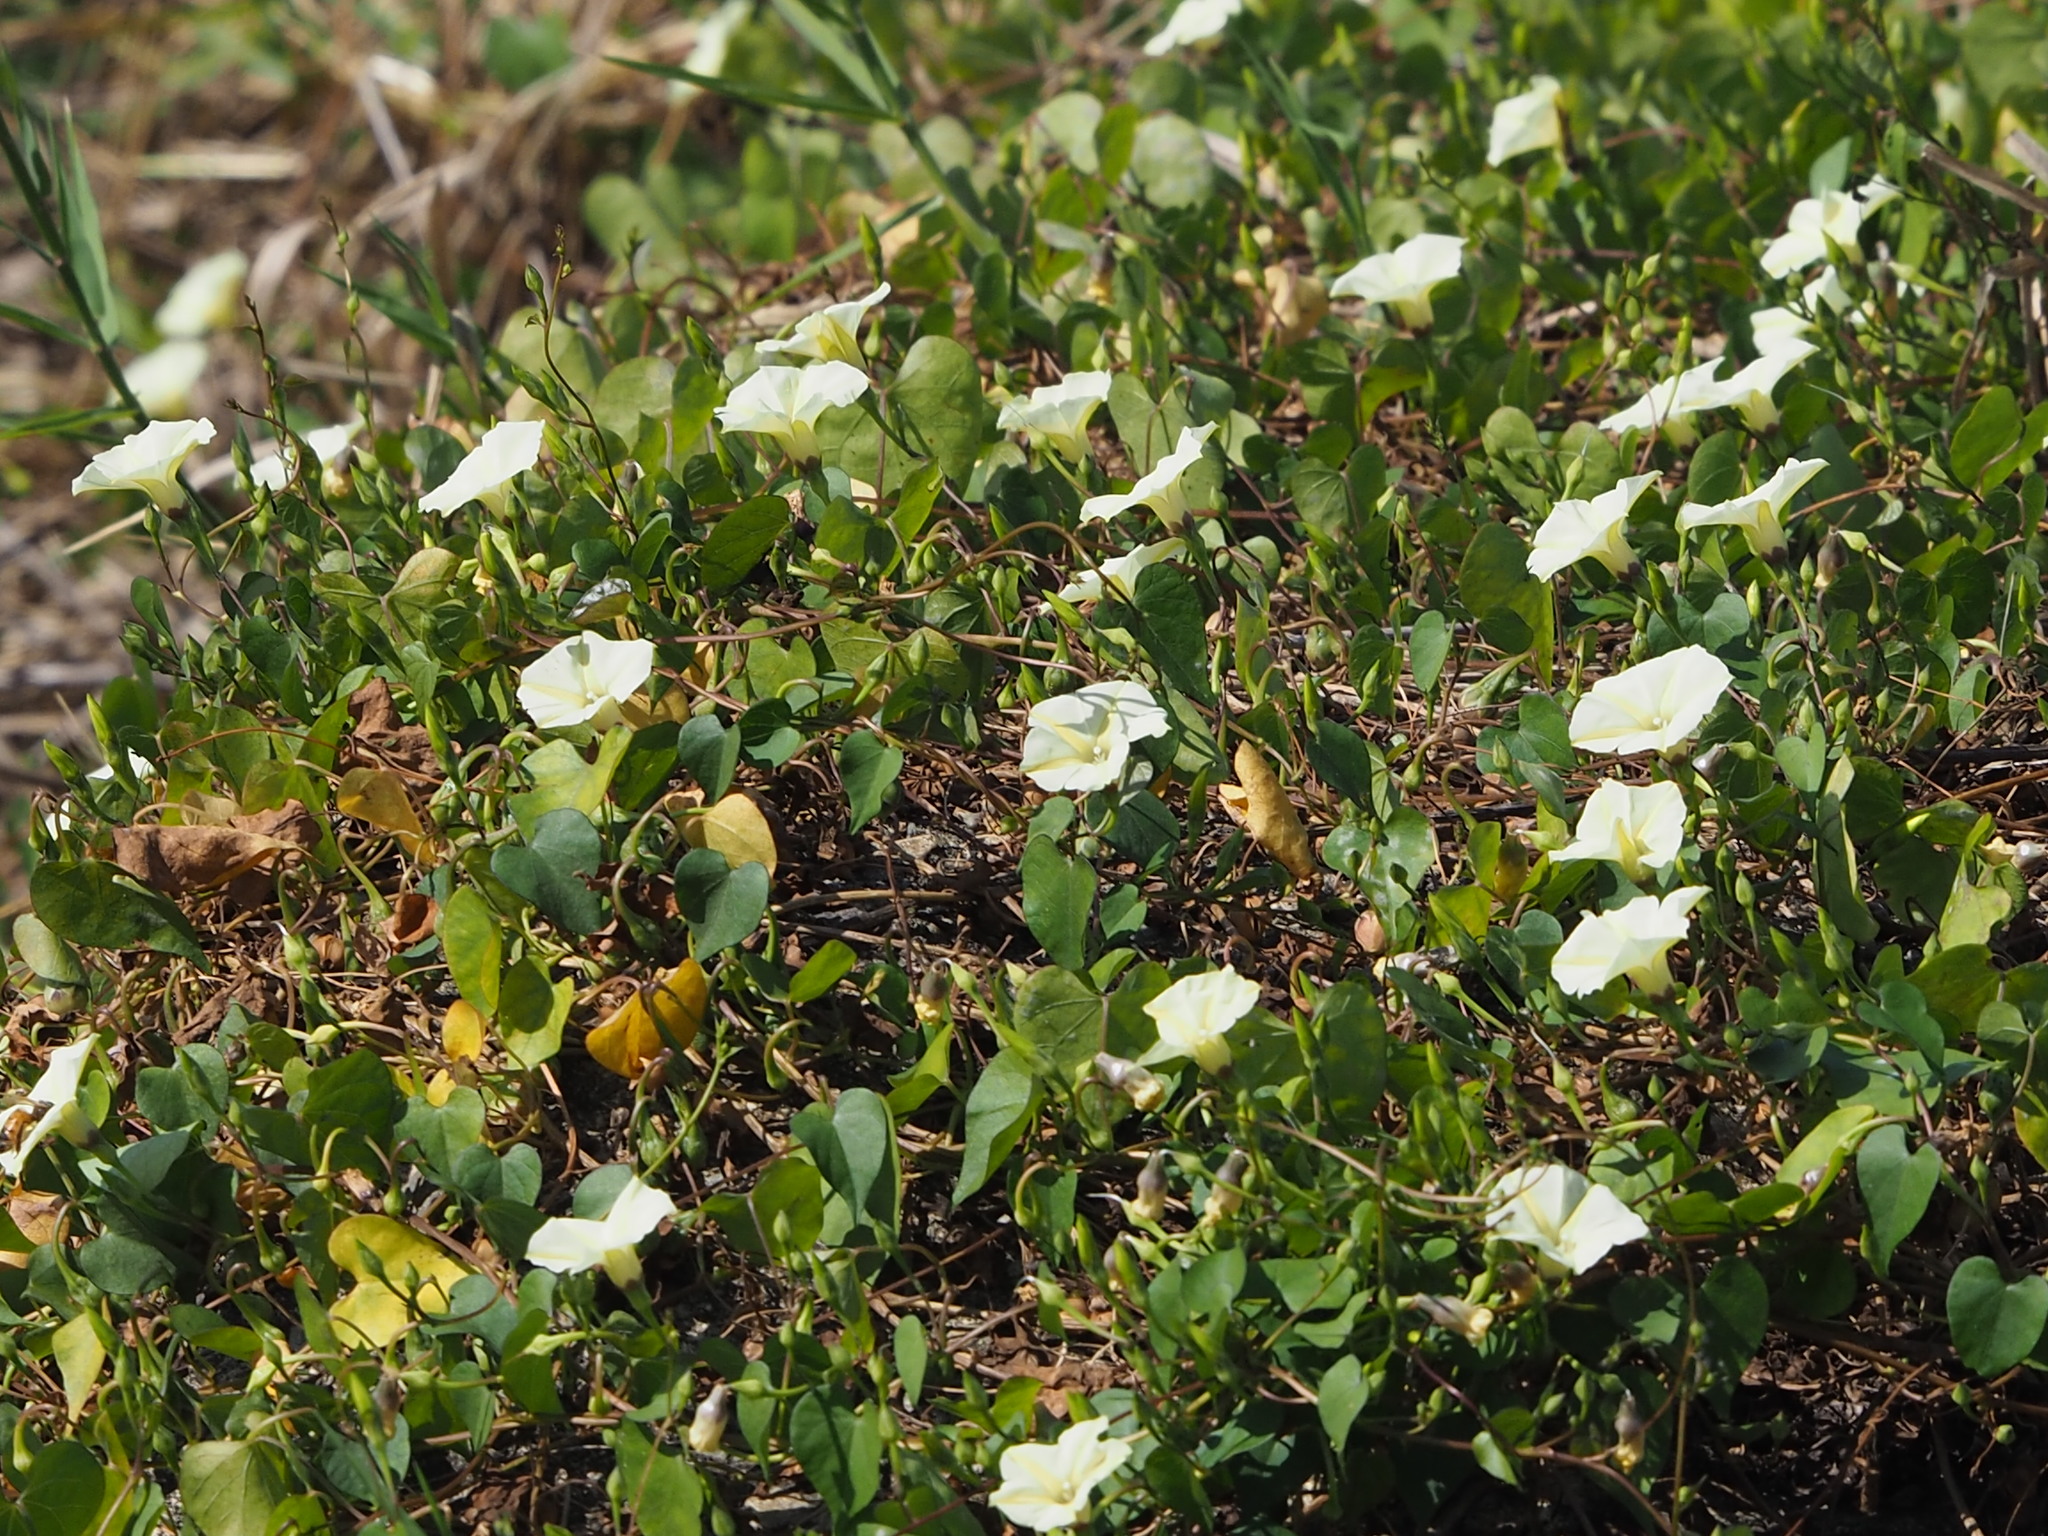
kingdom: Plantae
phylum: Tracheophyta
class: Magnoliopsida
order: Solanales
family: Convolvulaceae
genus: Ipomoea
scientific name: Ipomoea obscura
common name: Obscure morning-glory
